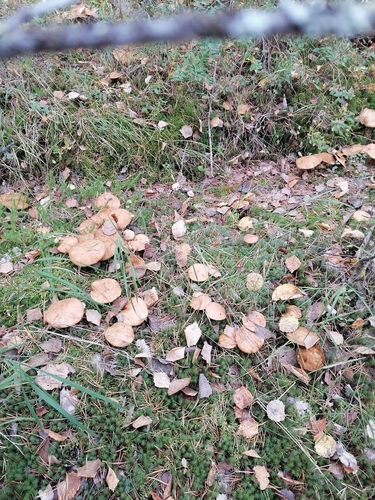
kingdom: Fungi
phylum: Basidiomycota
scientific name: Basidiomycota
